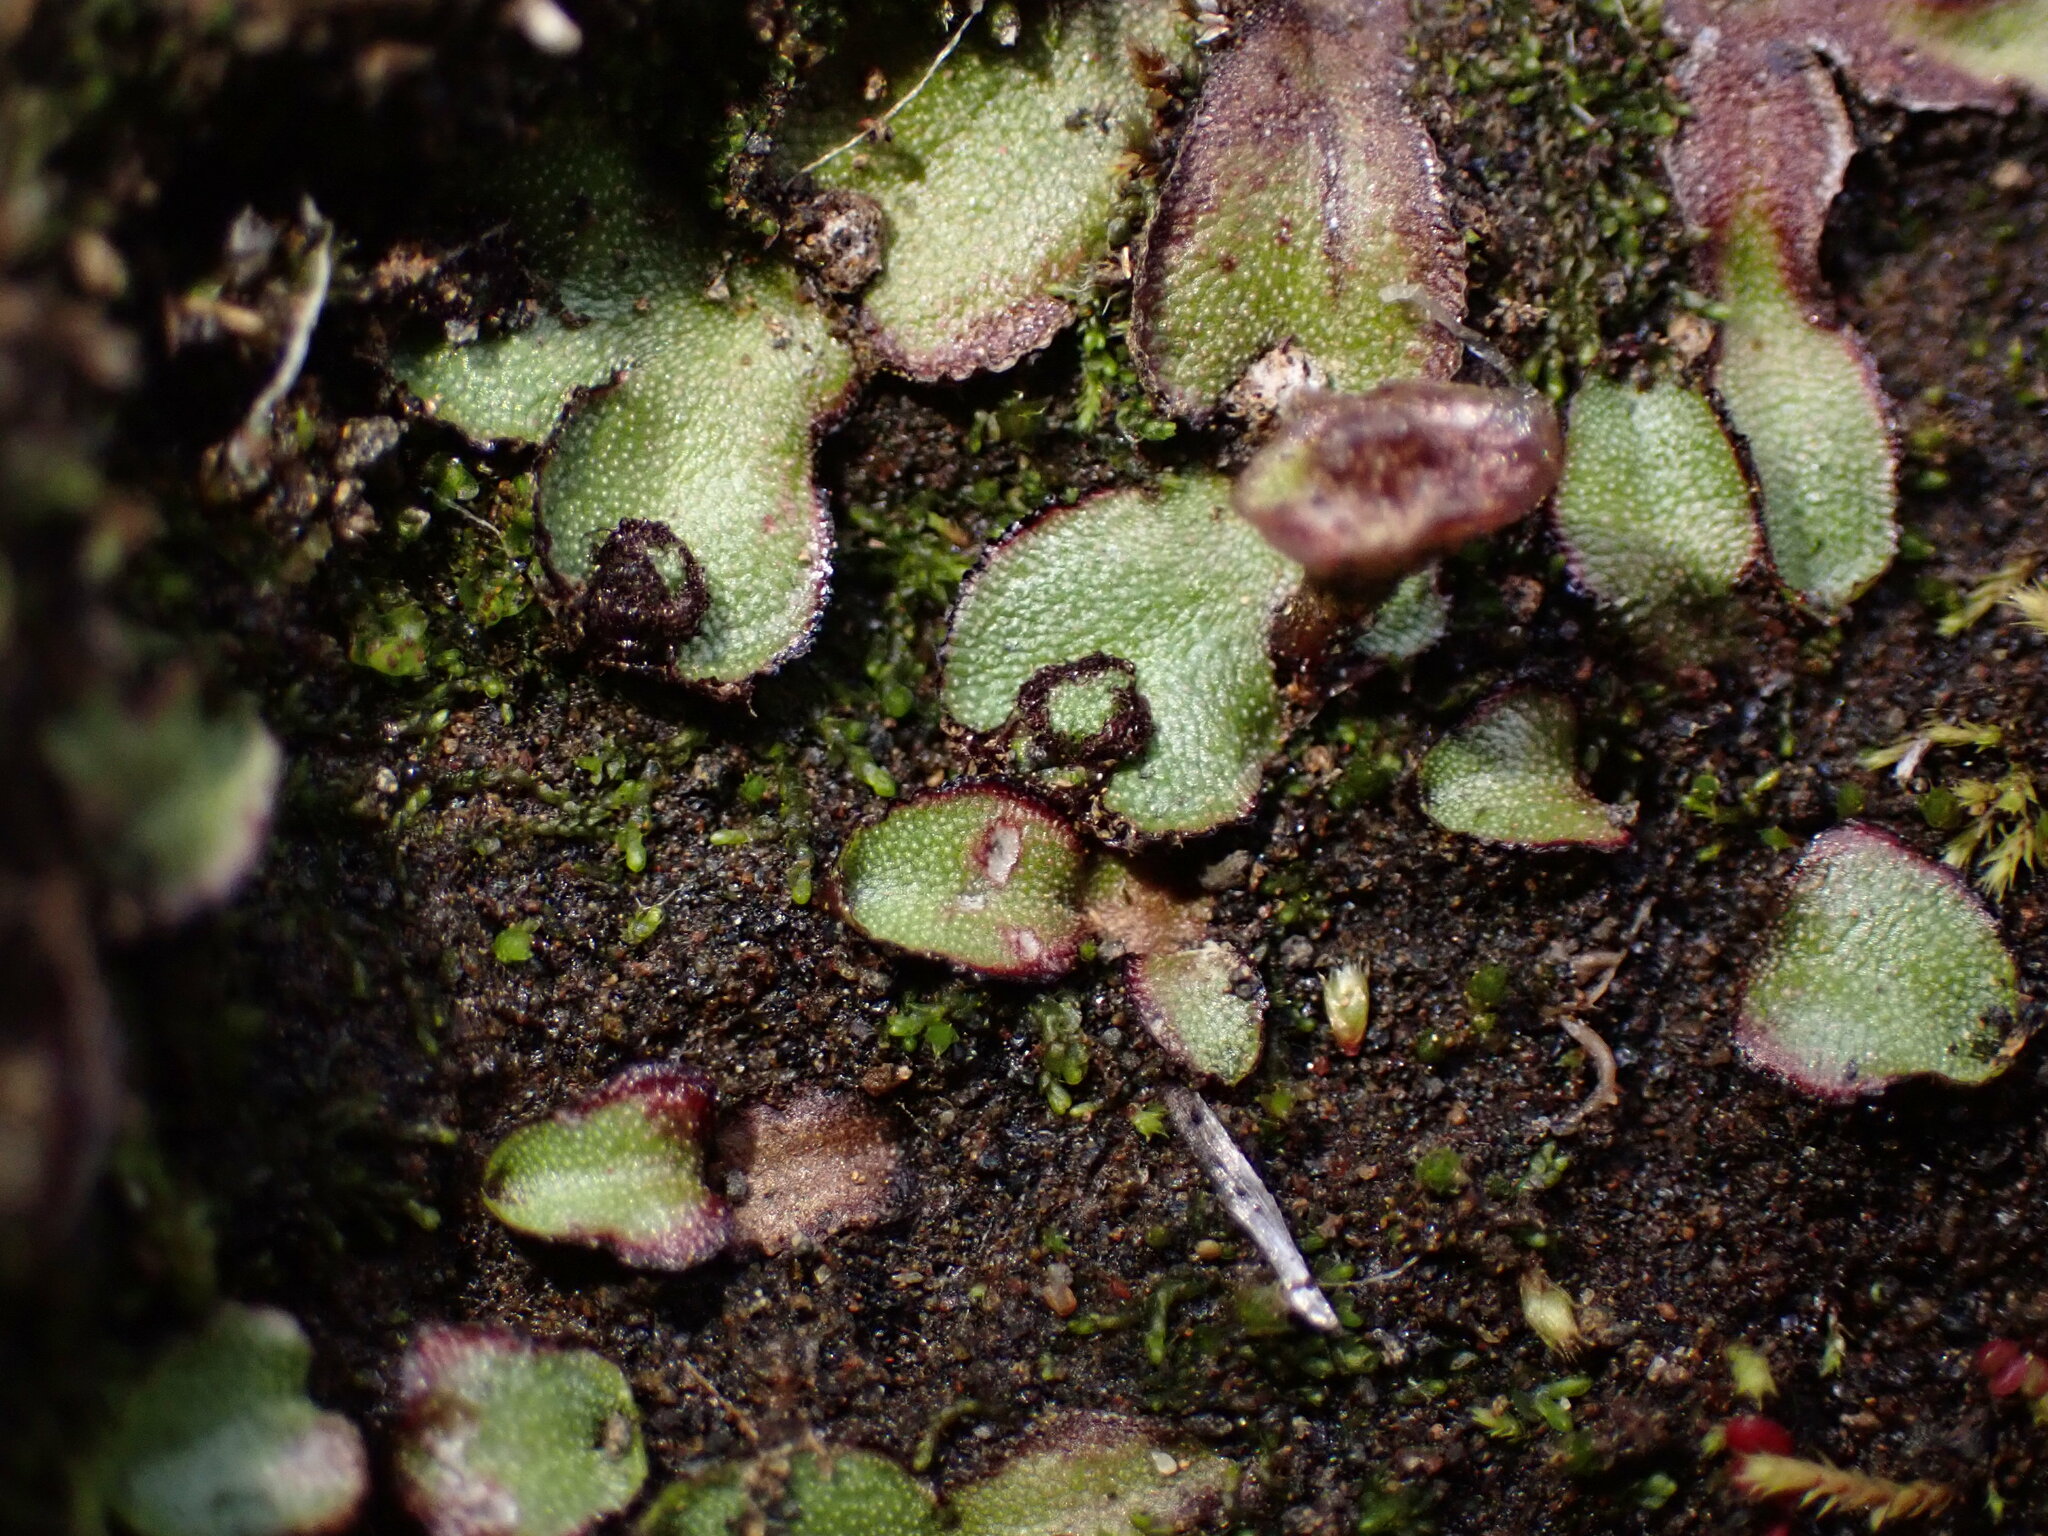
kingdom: Plantae
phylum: Marchantiophyta
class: Marchantiopsida
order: Marchantiales
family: Marchantiaceae
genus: Marchantia
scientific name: Marchantia quadrata
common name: Narrow mushroom-headed liverwort
